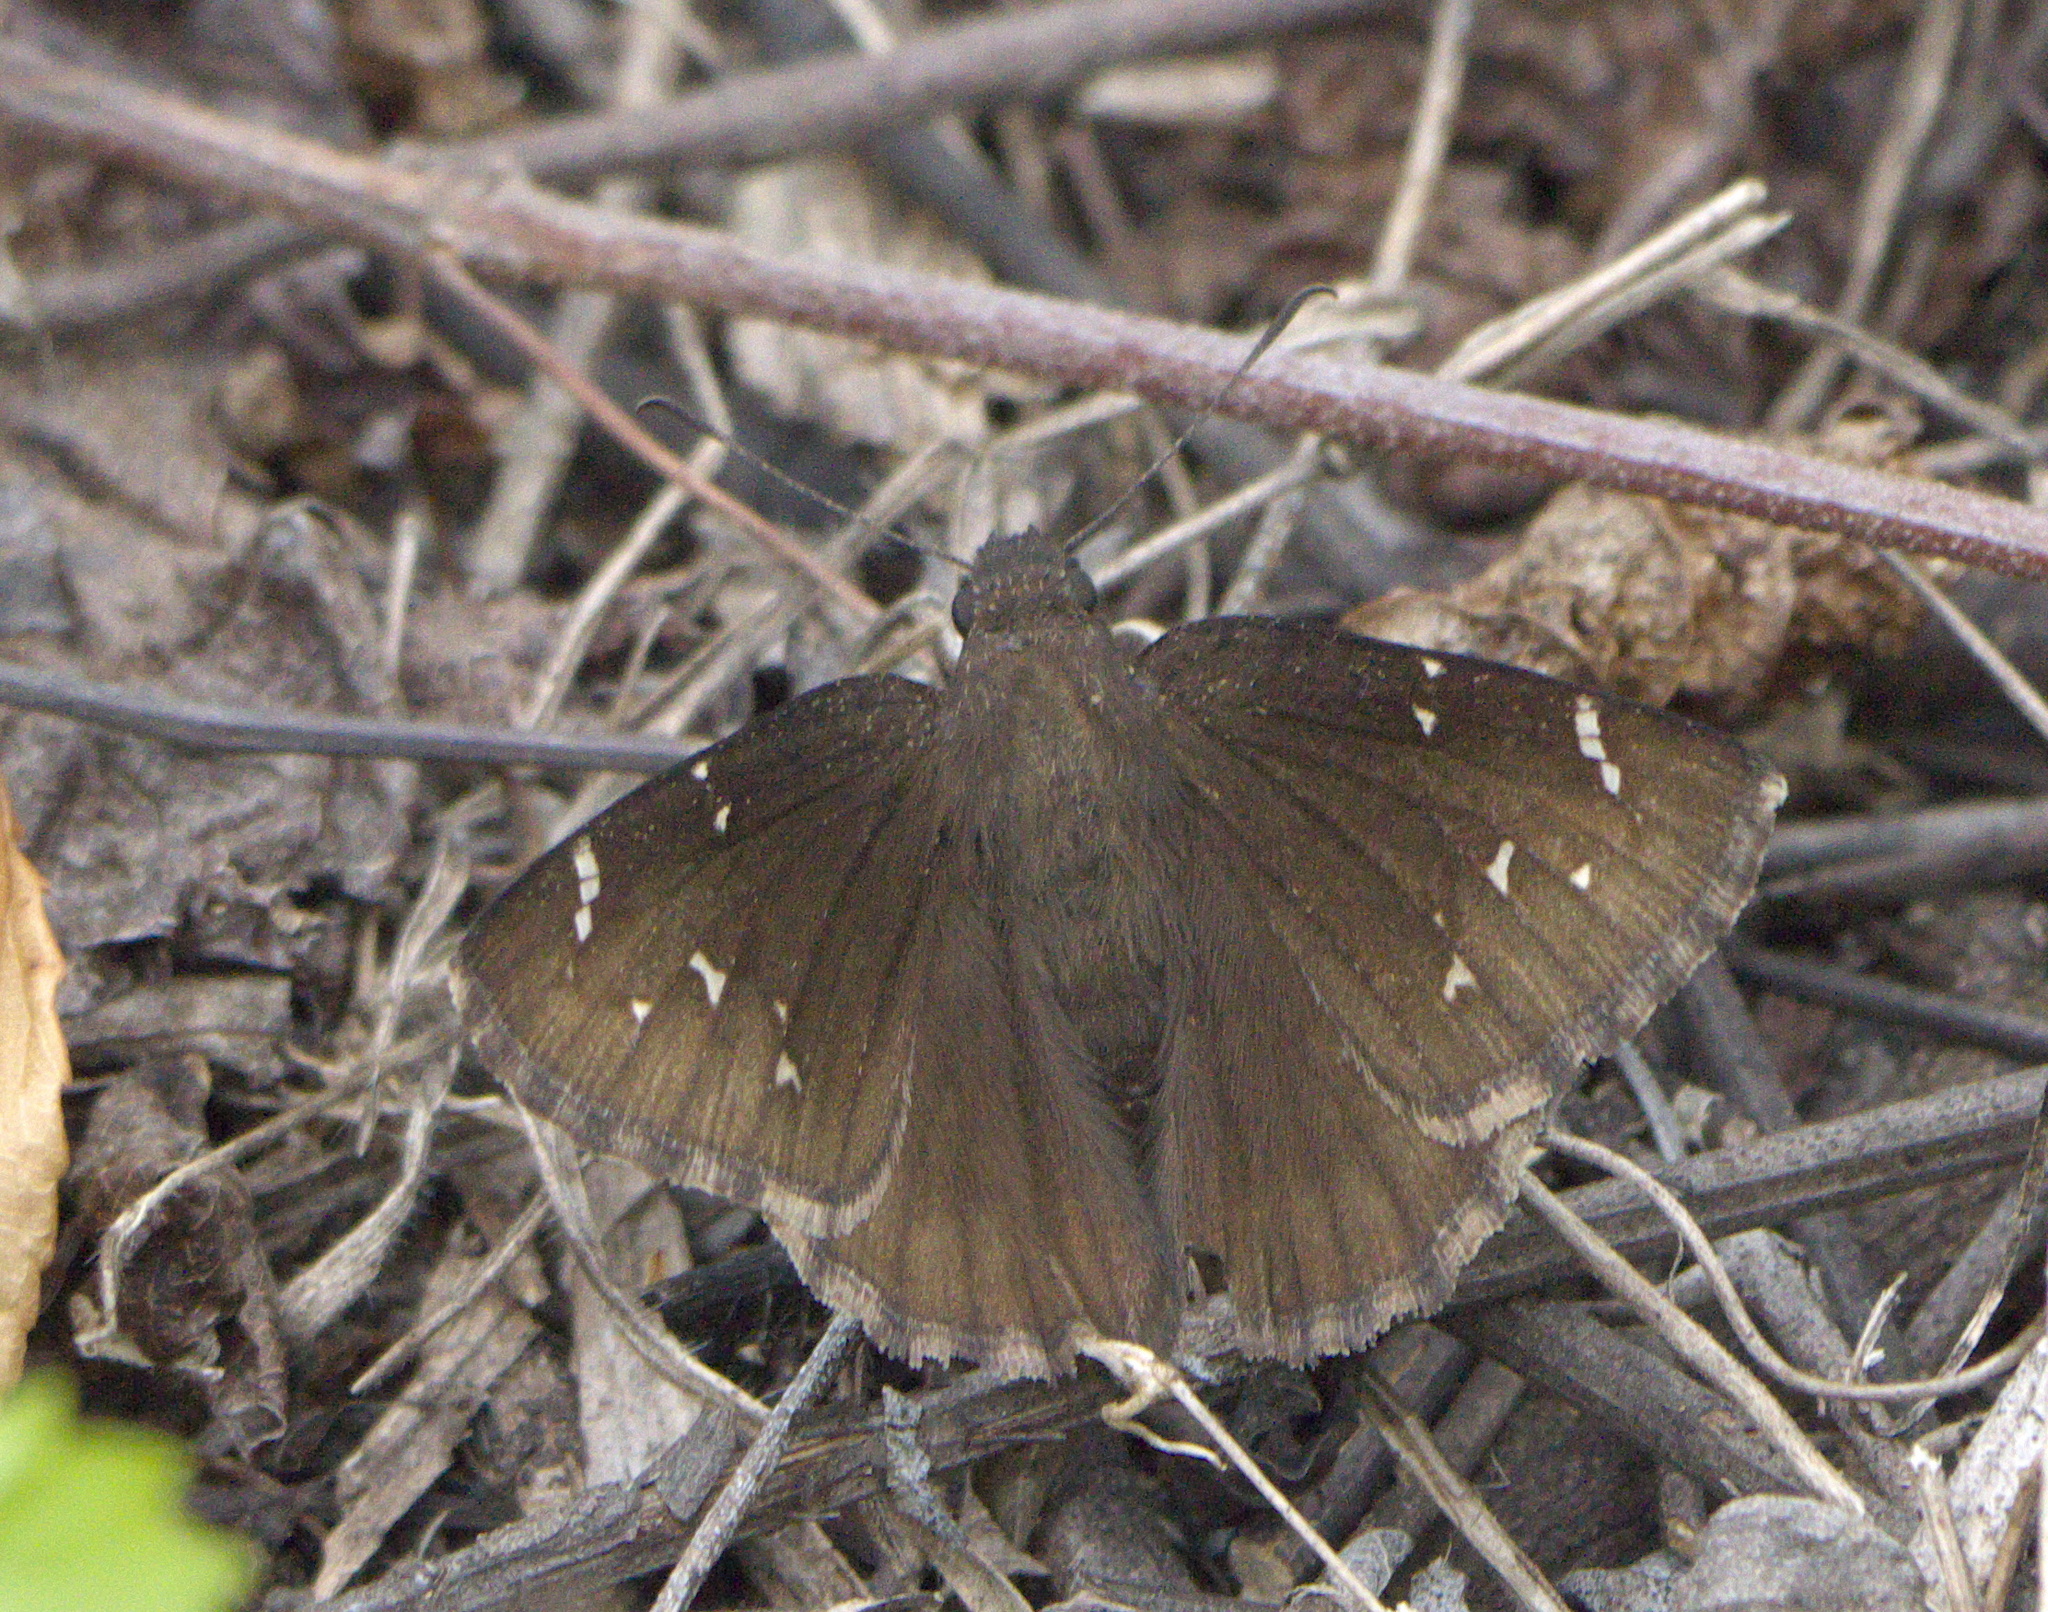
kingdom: Animalia
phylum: Arthropoda
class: Insecta
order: Lepidoptera
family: Hesperiidae
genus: Thorybes
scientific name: Thorybes pylades
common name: Northern cloudywing
